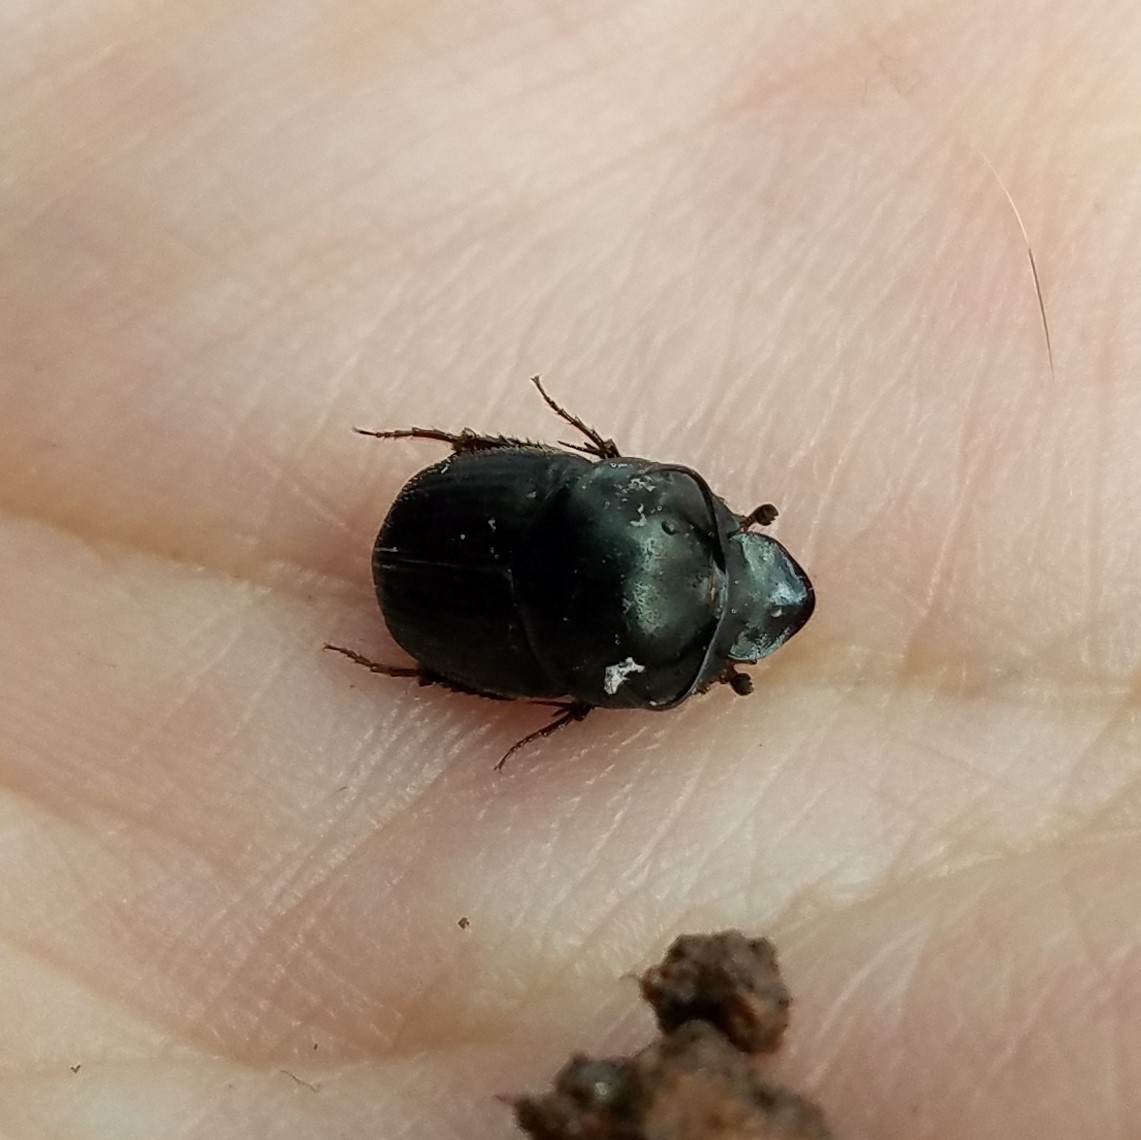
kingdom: Animalia
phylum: Arthropoda
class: Insecta
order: Coleoptera
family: Scarabaeidae
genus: Onthophagus
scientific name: Onthophagus taurus
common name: Bullhorned dung beetle
